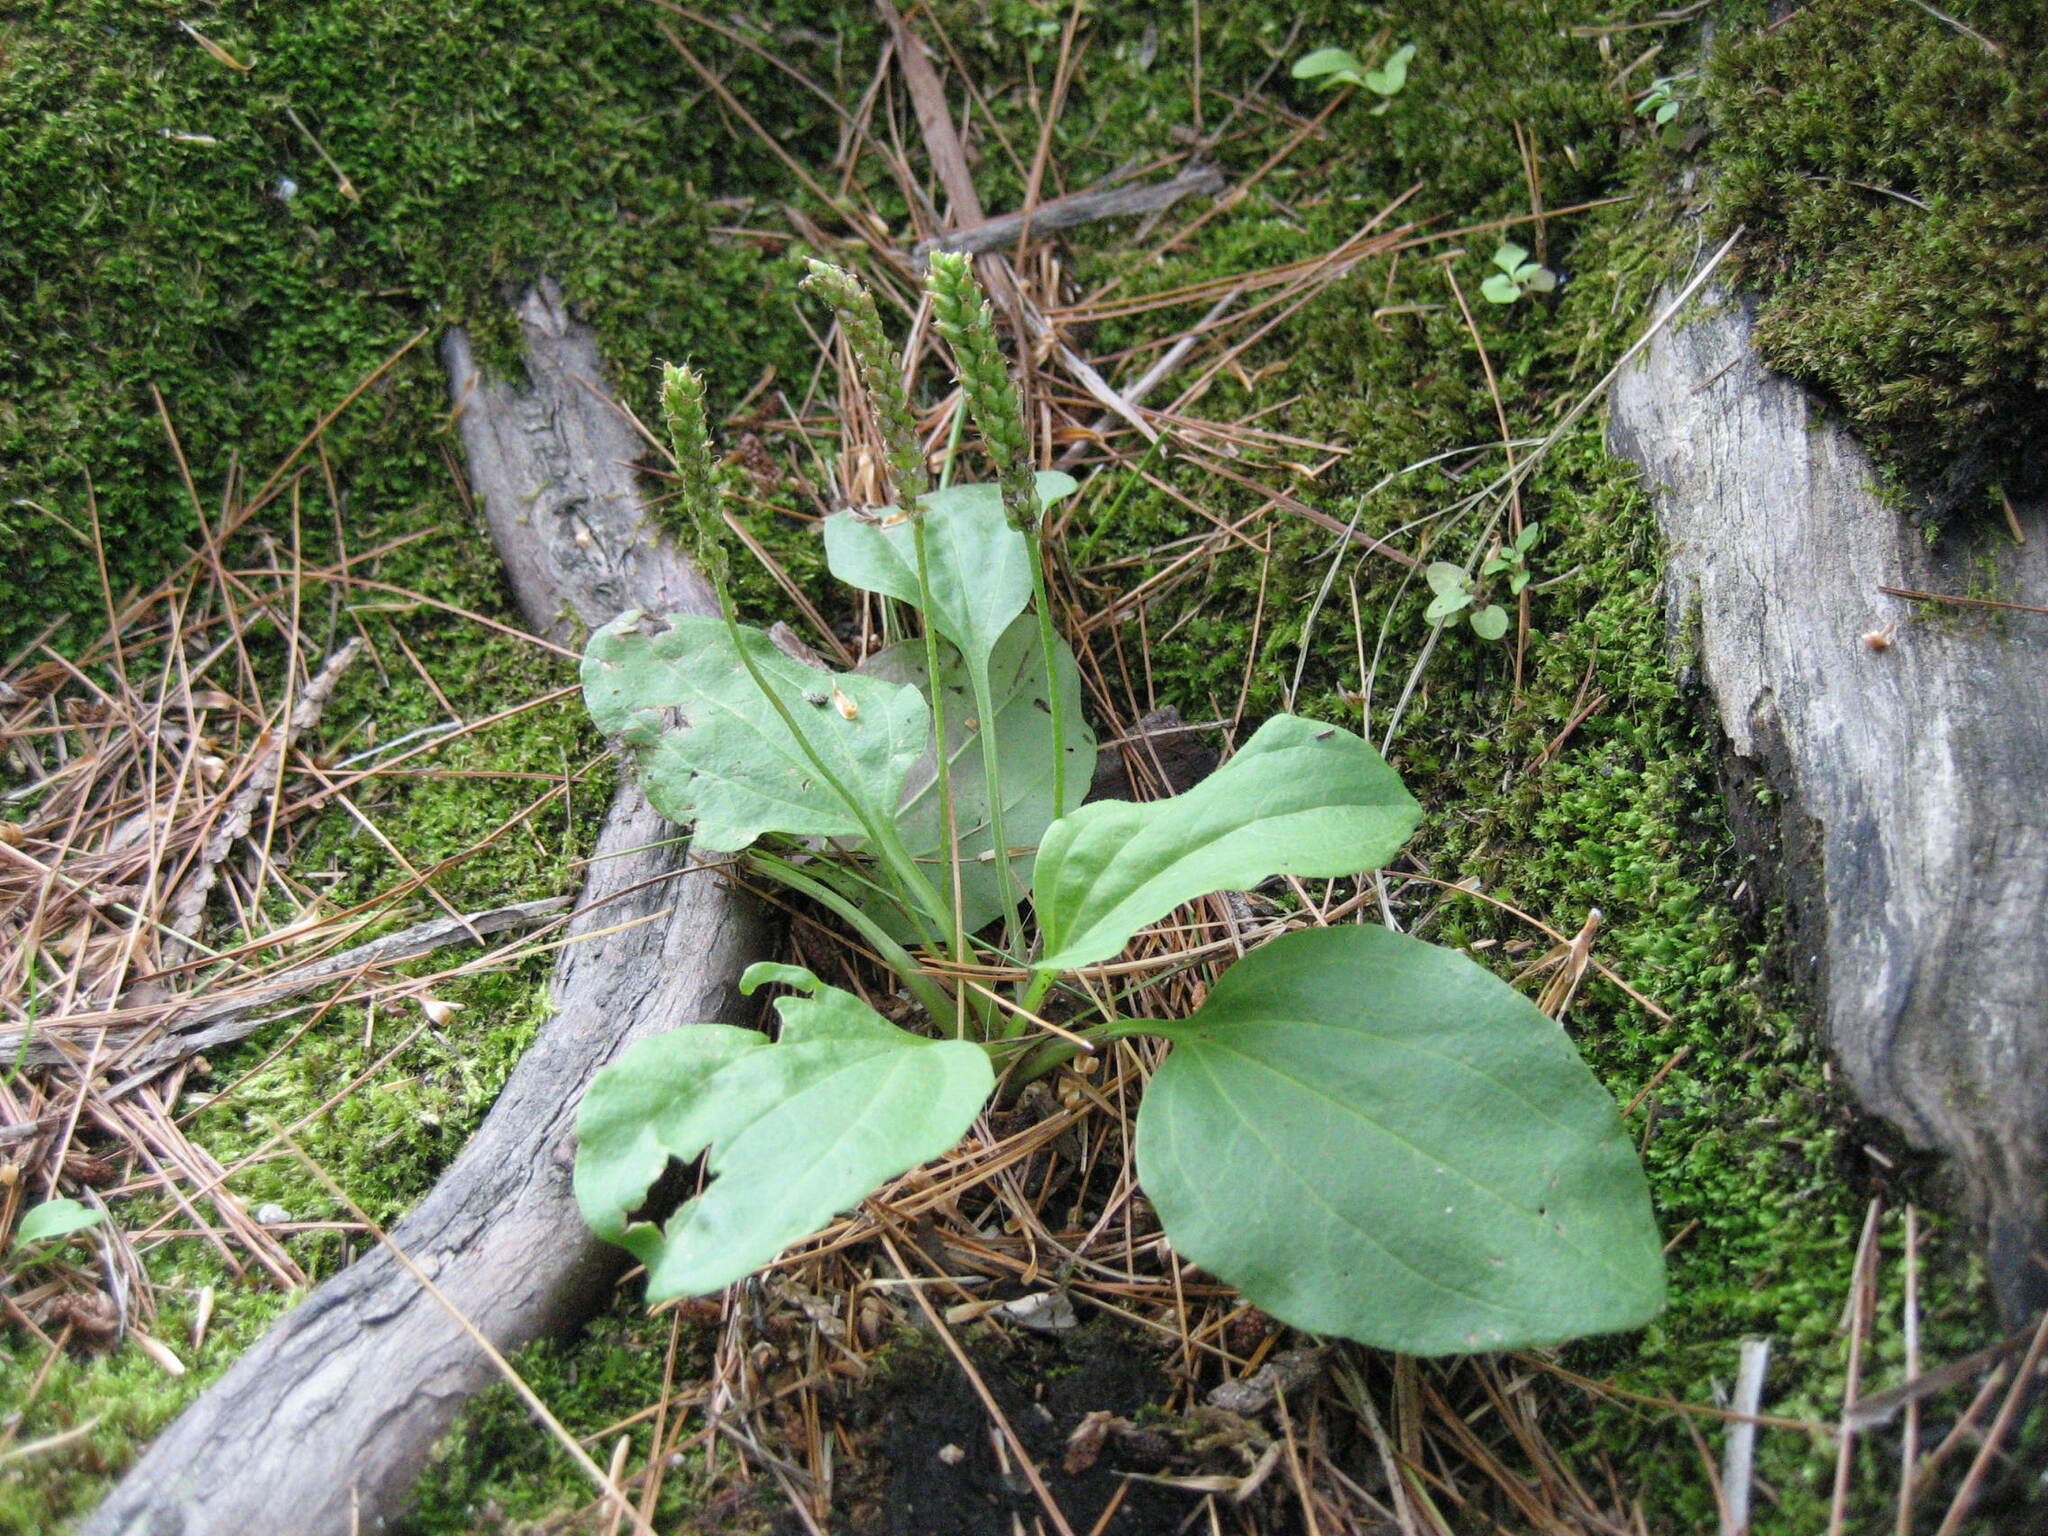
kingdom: Plantae
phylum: Tracheophyta
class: Magnoliopsida
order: Lamiales
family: Plantaginaceae
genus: Plantago
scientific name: Plantago major
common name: Common plantain
